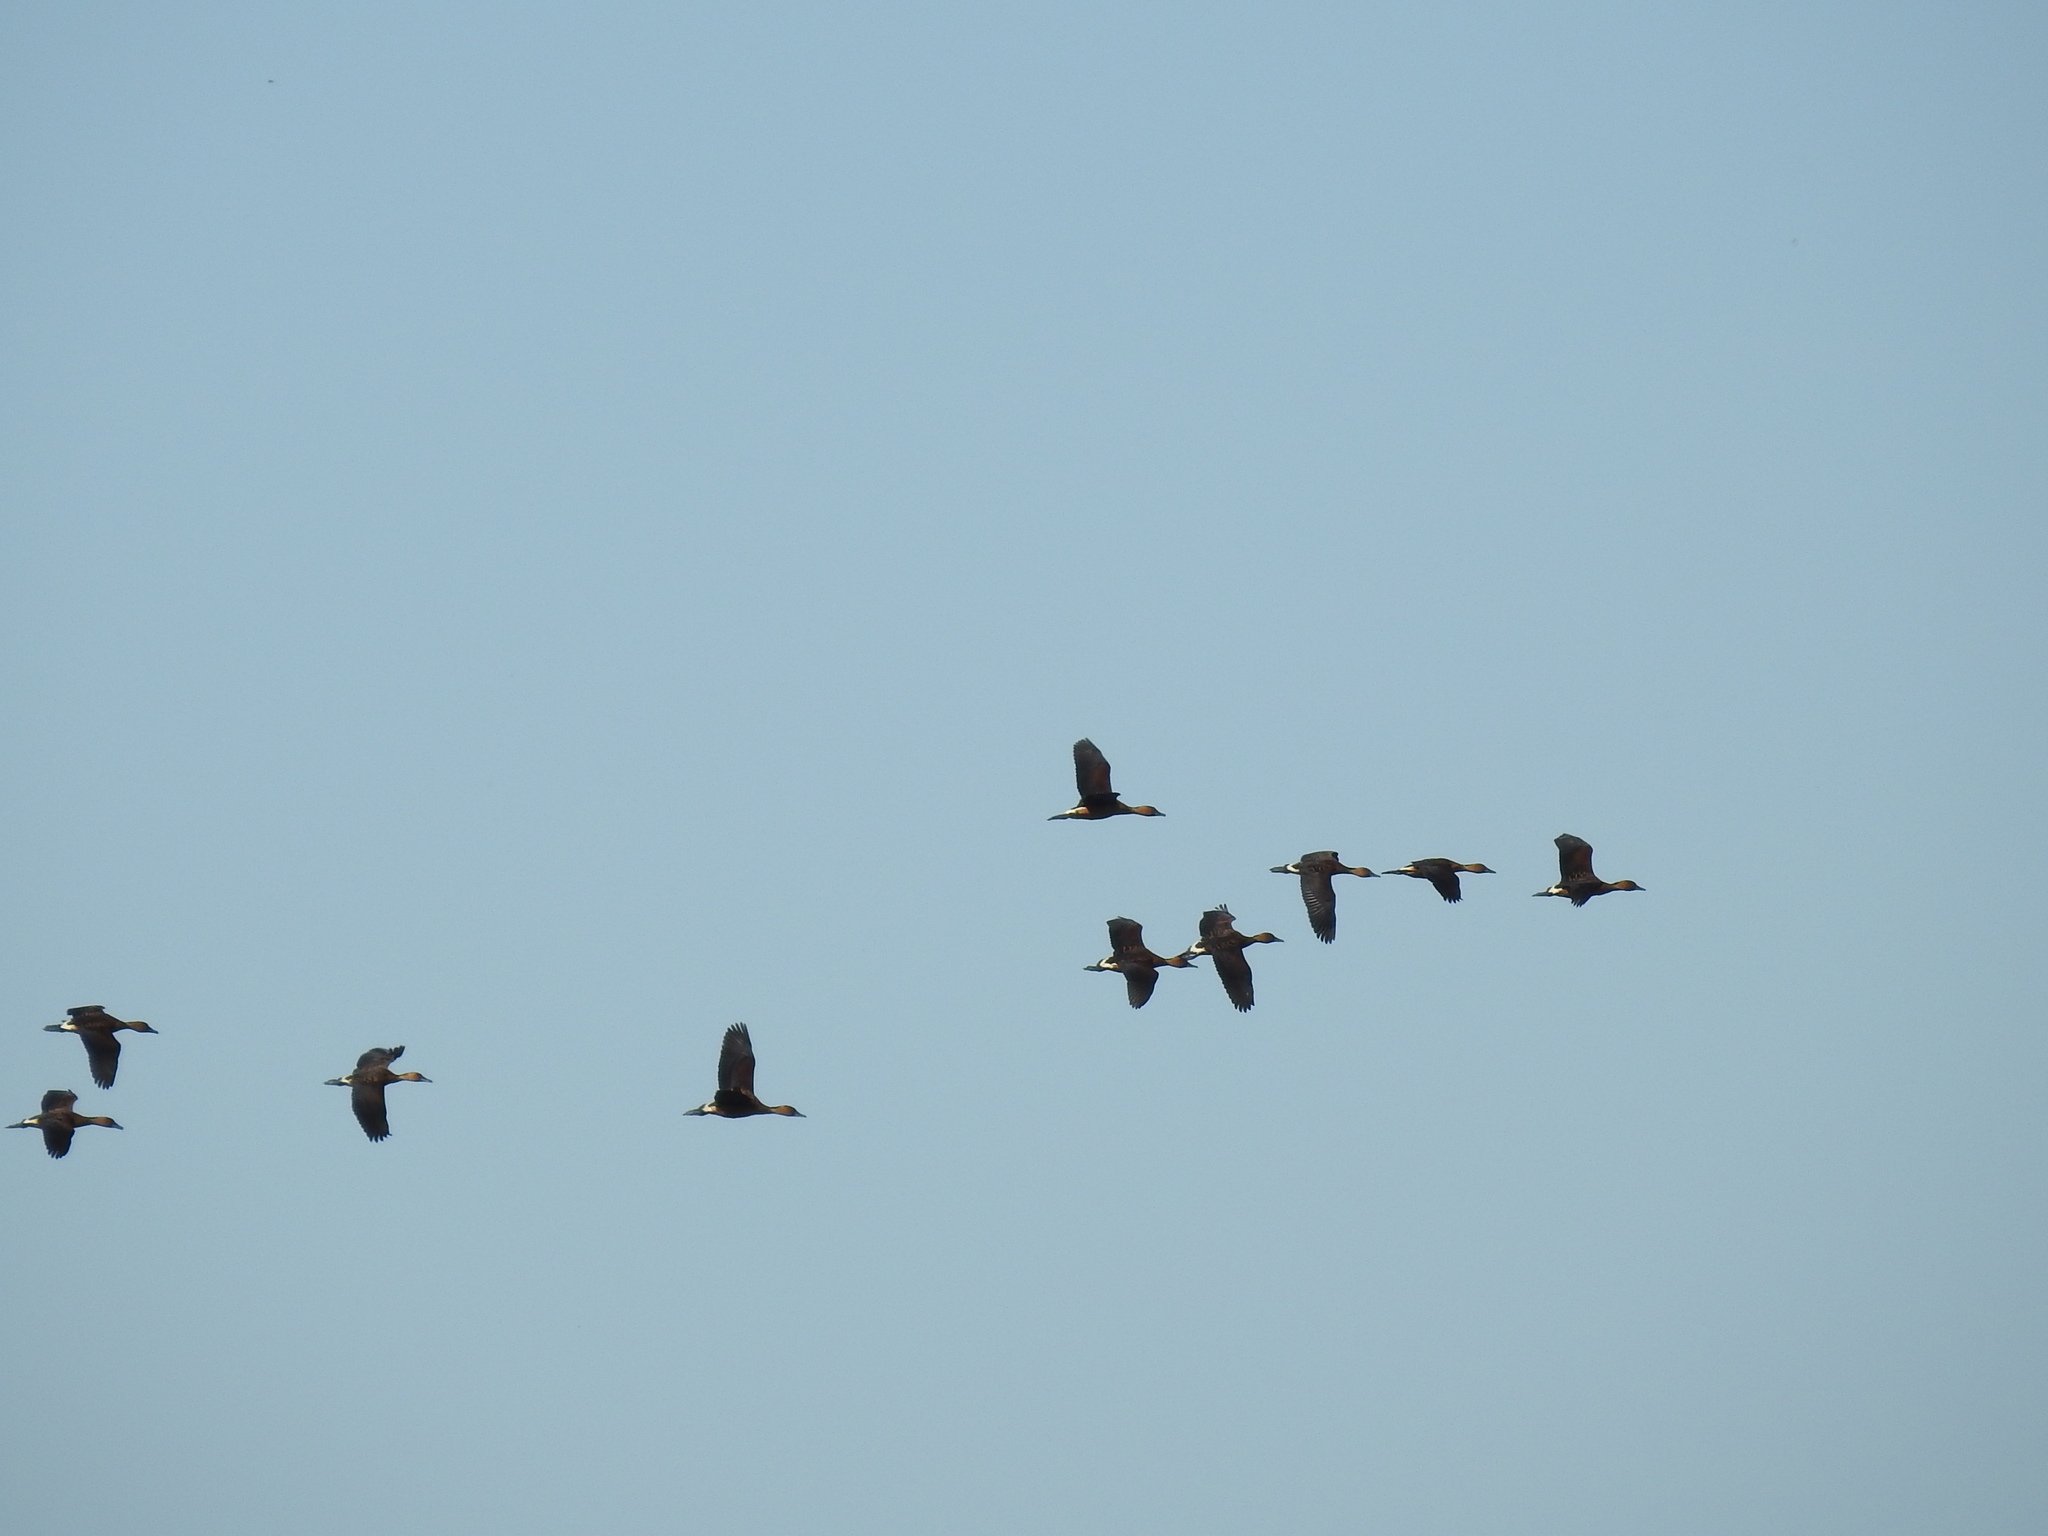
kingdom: Animalia
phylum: Chordata
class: Aves
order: Anseriformes
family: Anatidae
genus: Dendrocygna
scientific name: Dendrocygna bicolor
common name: Fulvous whistling duck
